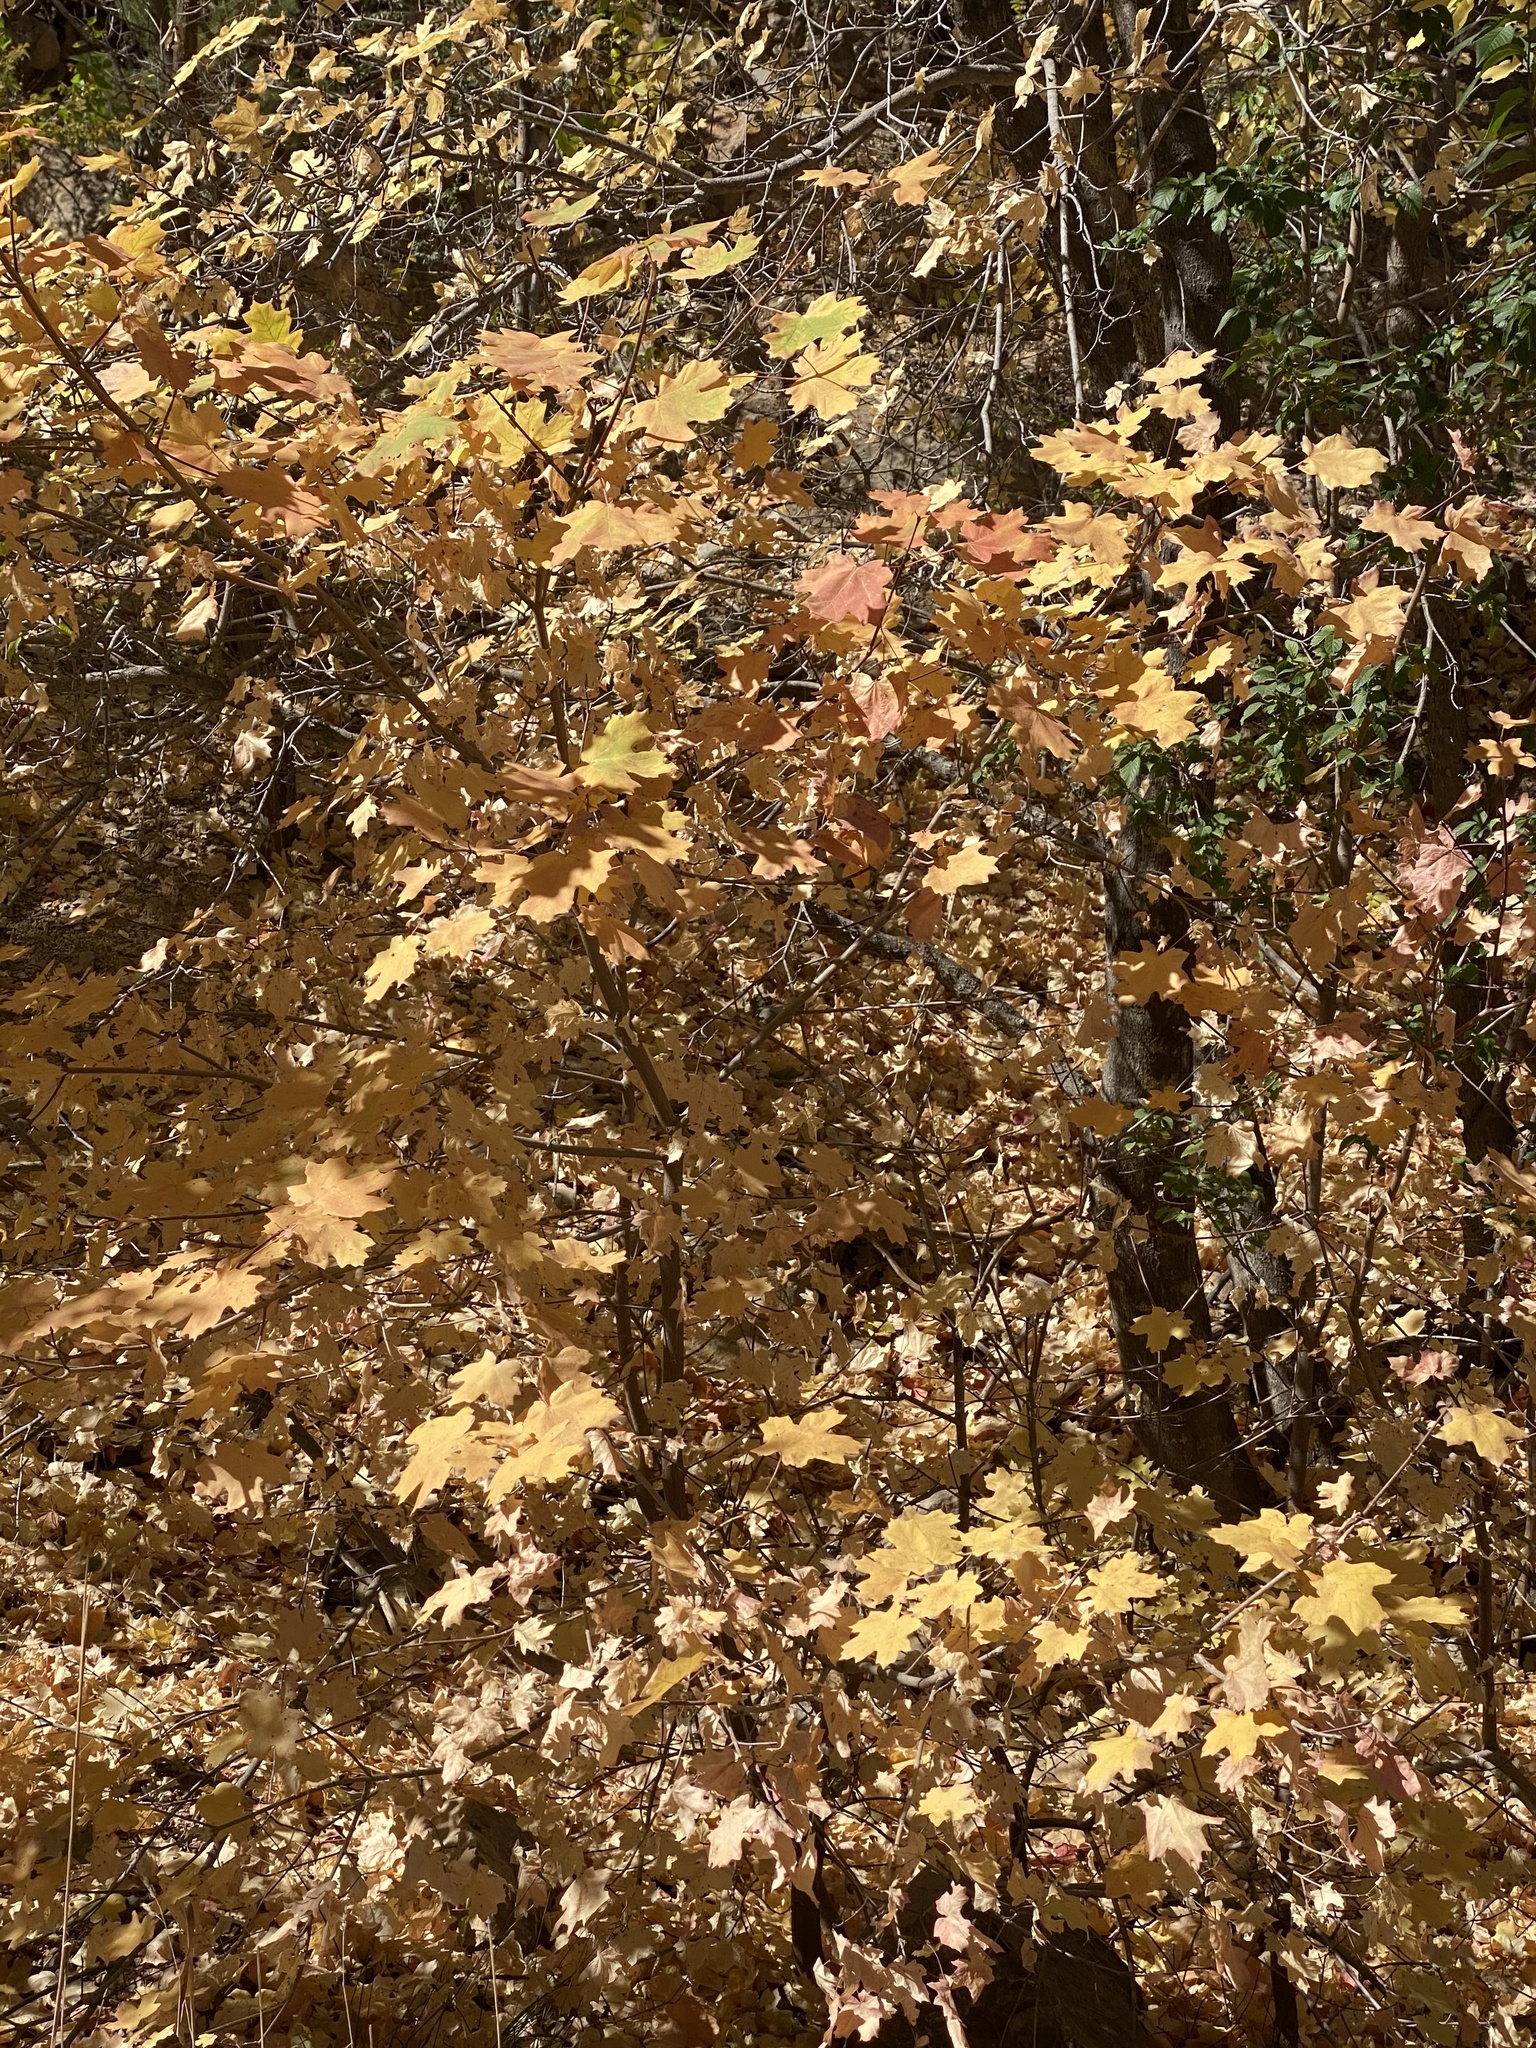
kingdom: Plantae
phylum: Tracheophyta
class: Magnoliopsida
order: Sapindales
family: Sapindaceae
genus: Acer
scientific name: Acer grandidentatum
